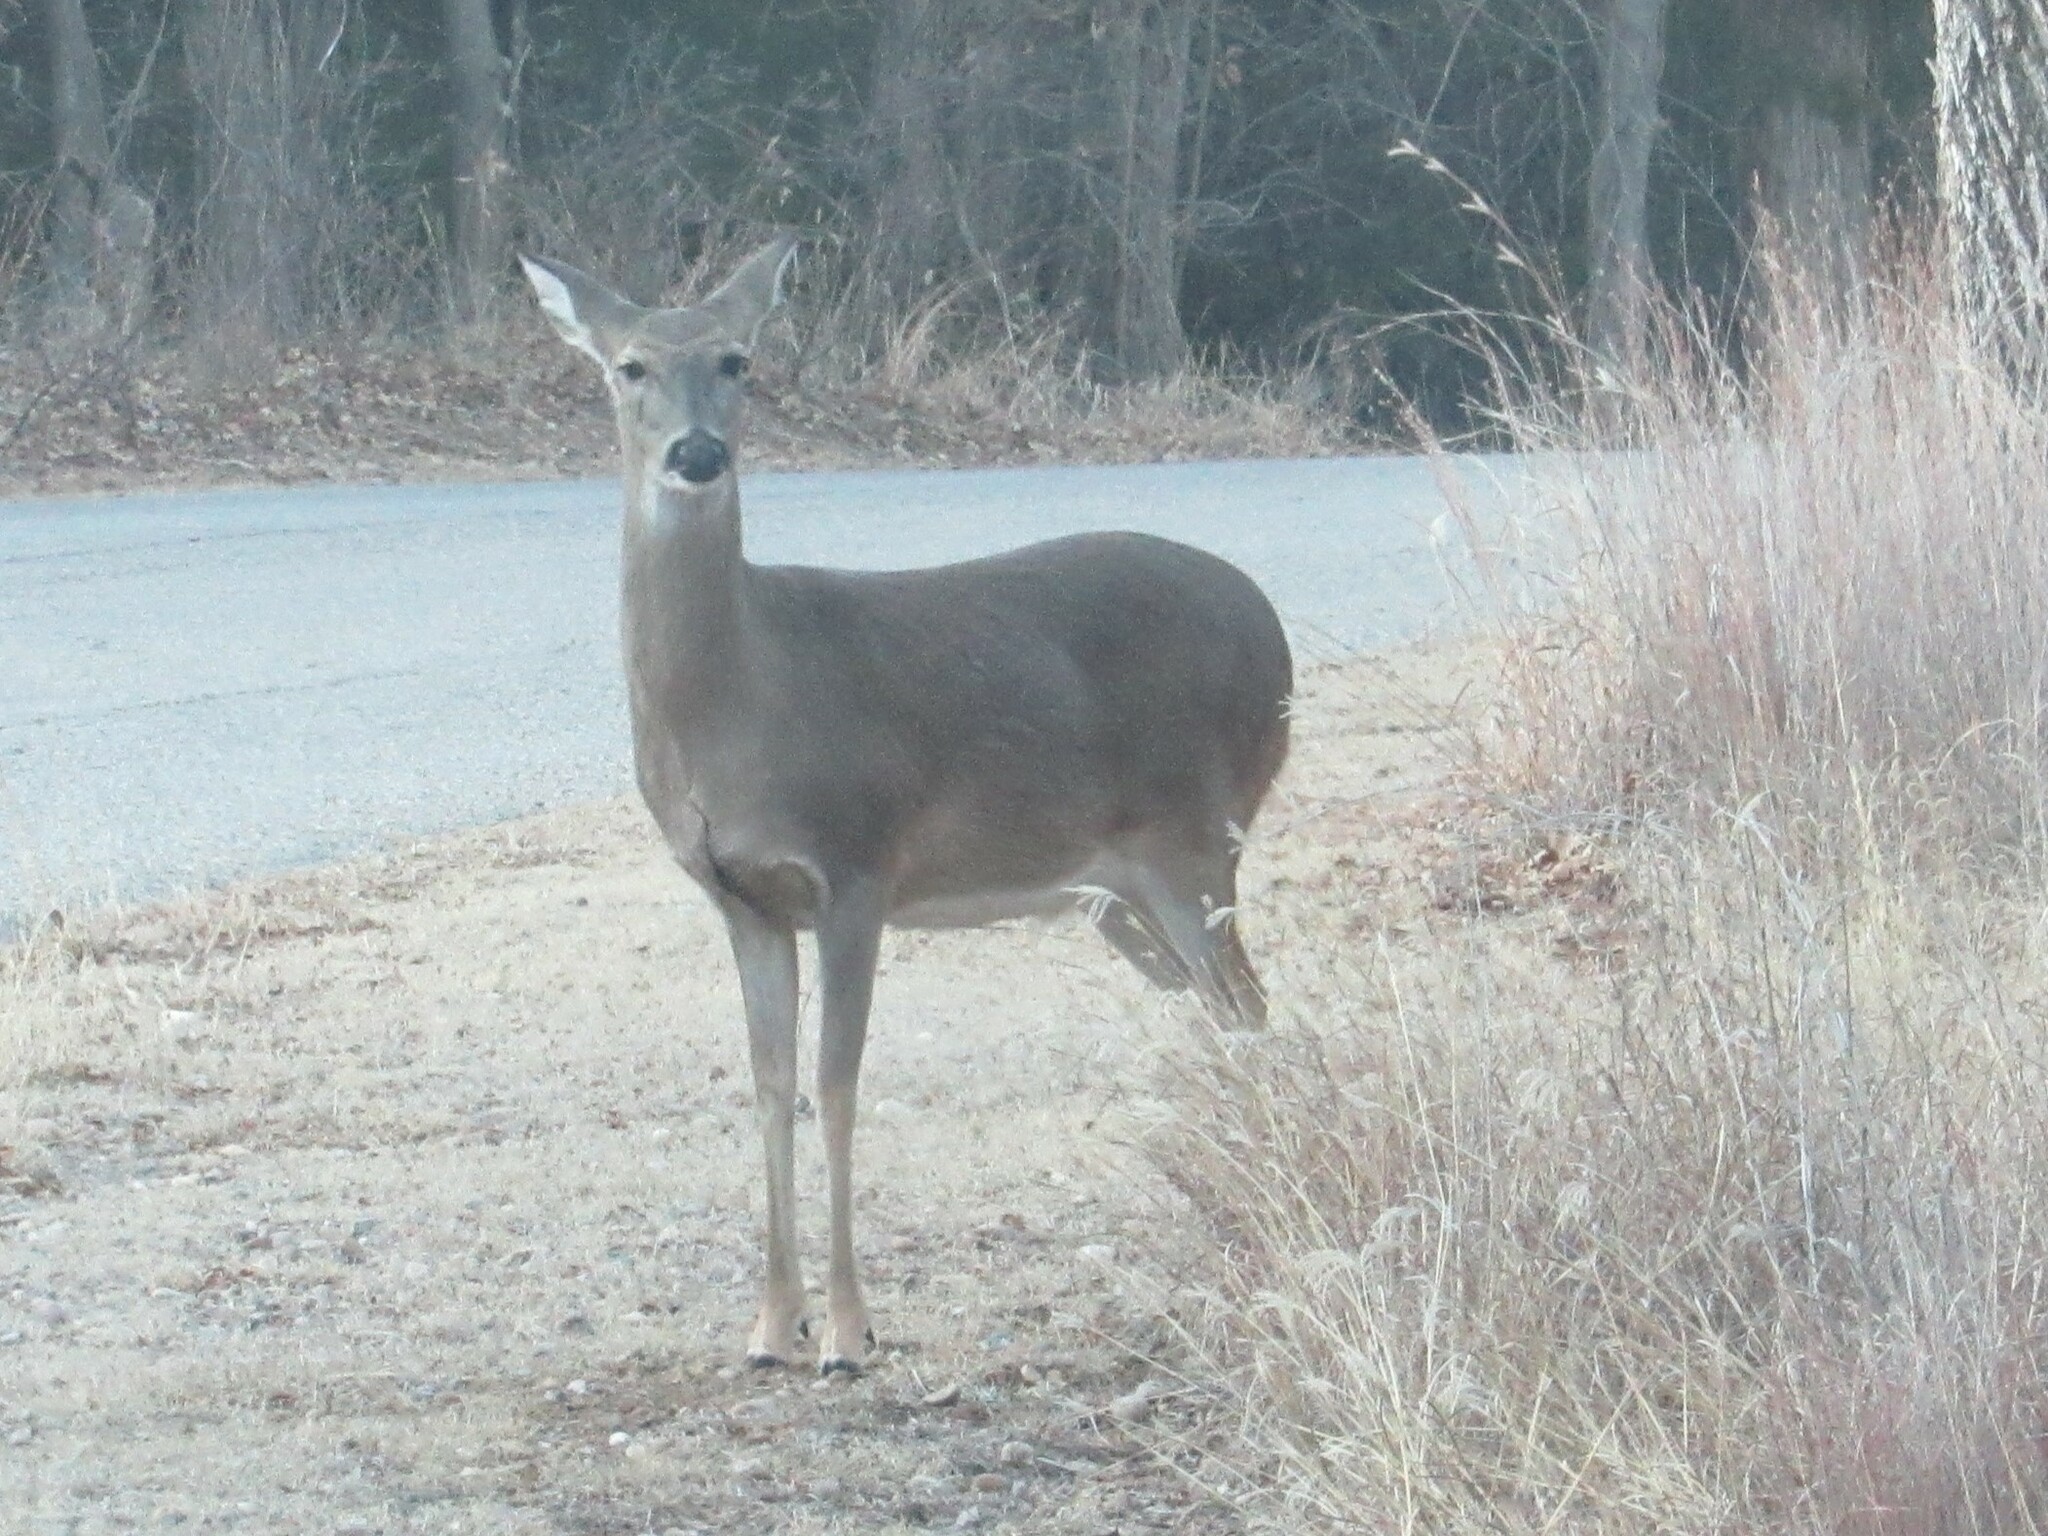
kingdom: Animalia
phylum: Chordata
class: Mammalia
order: Artiodactyla
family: Cervidae
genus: Odocoileus
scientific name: Odocoileus virginianus
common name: White-tailed deer
